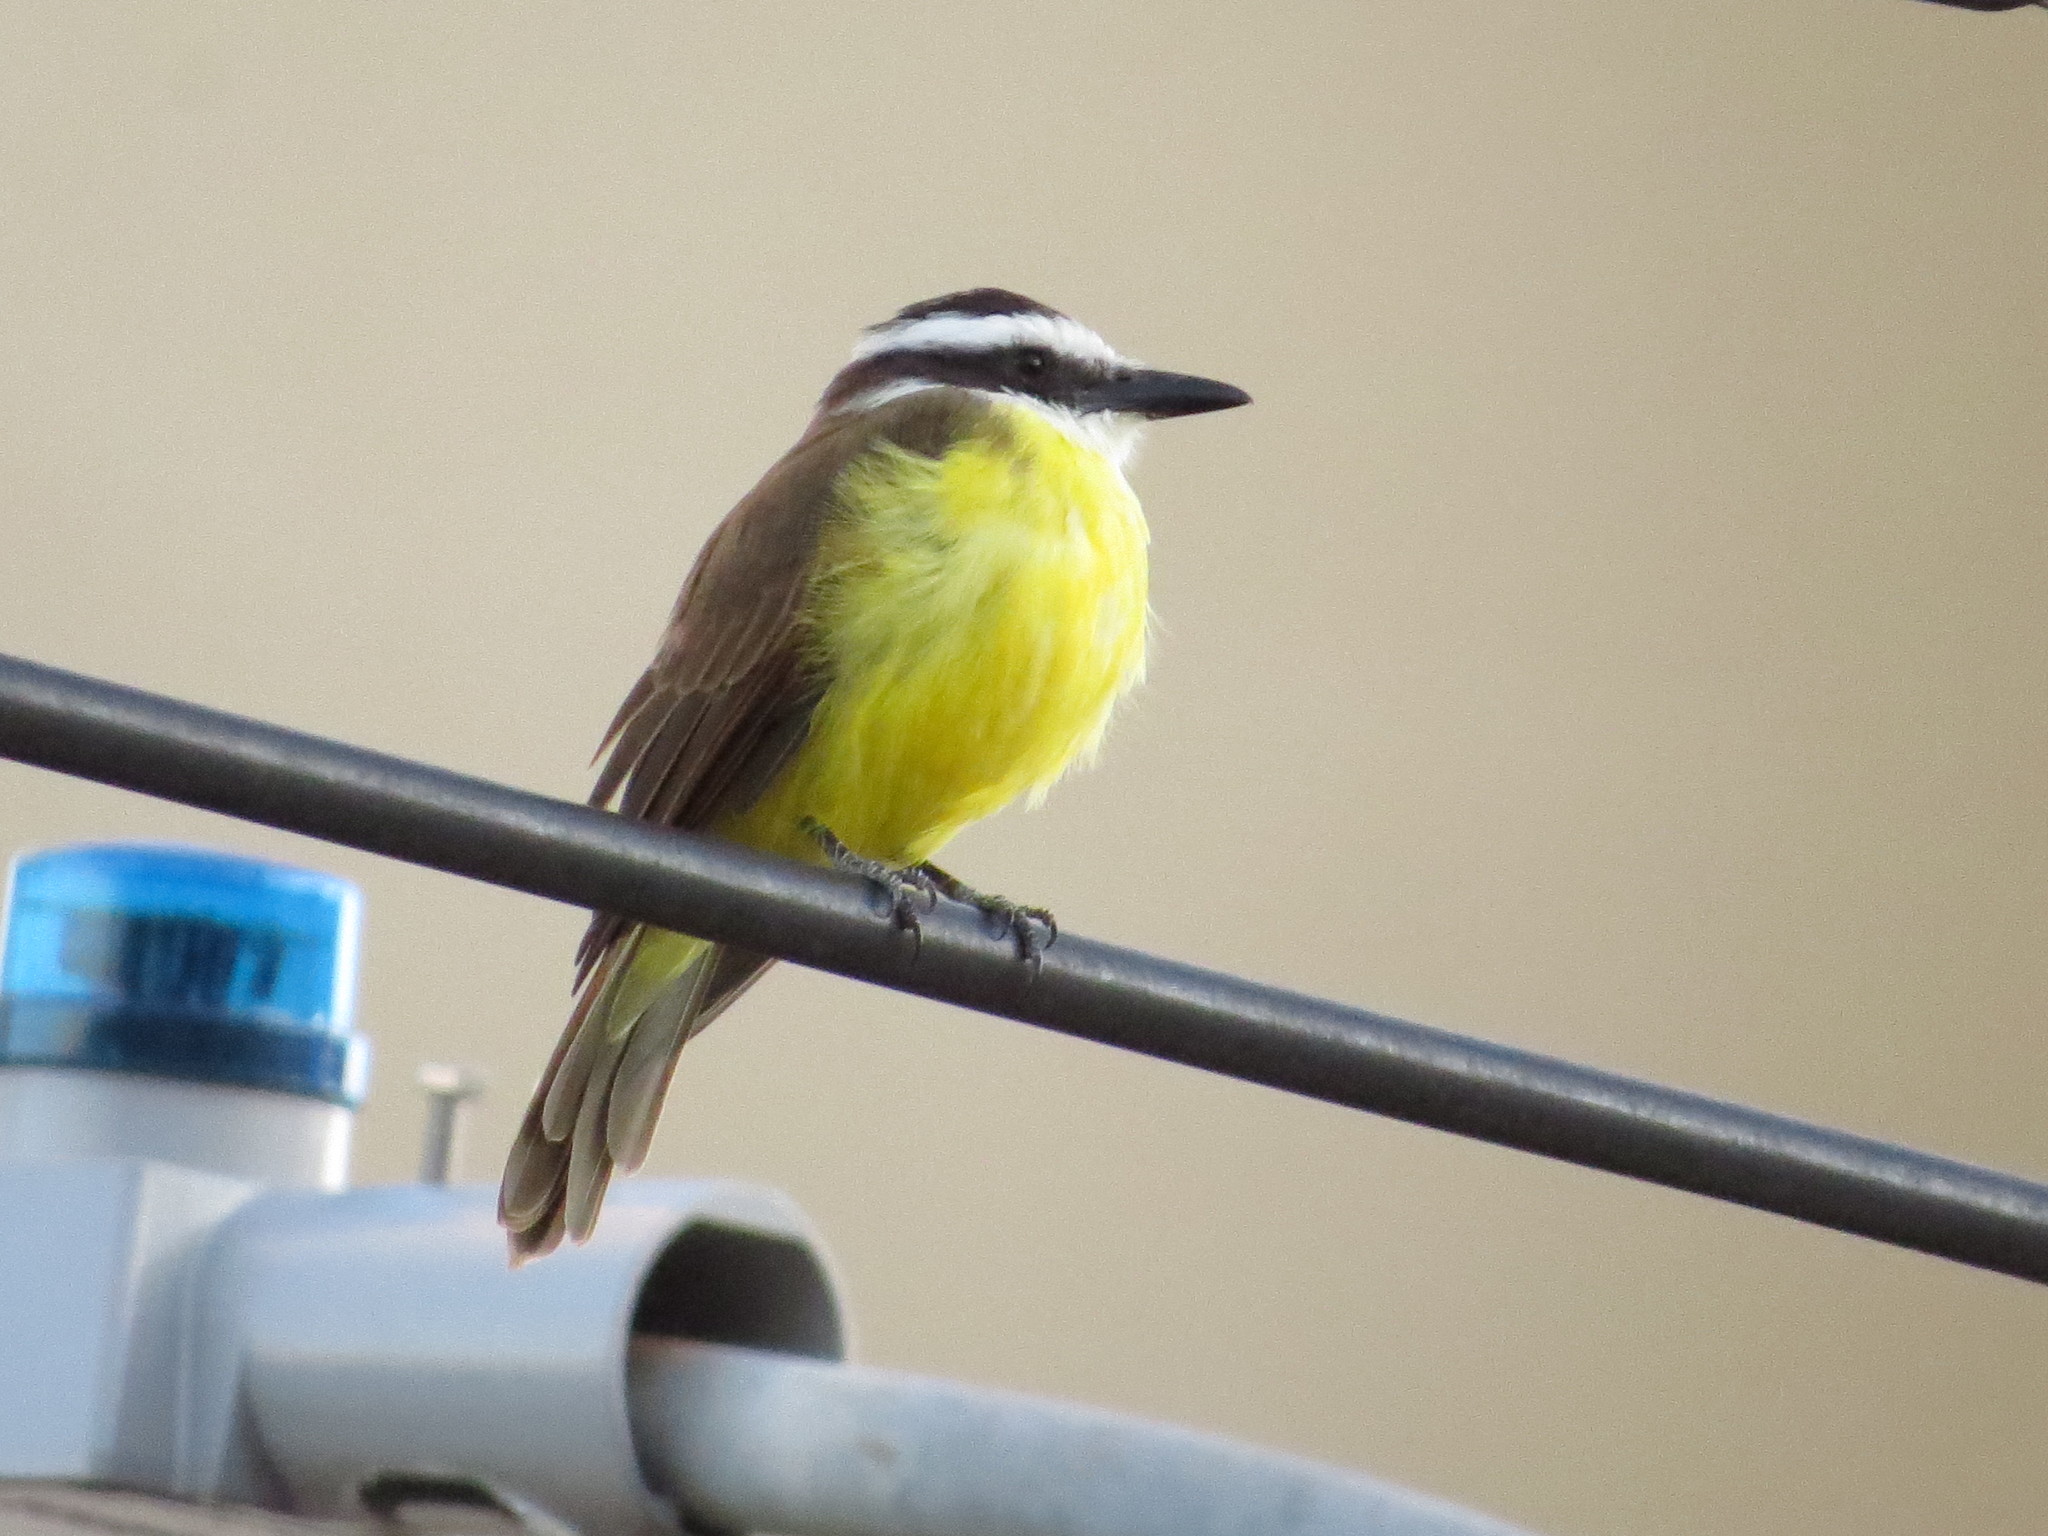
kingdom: Animalia
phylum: Chordata
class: Aves
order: Passeriformes
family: Tyrannidae
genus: Pitangus
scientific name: Pitangus sulphuratus
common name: Great kiskadee
